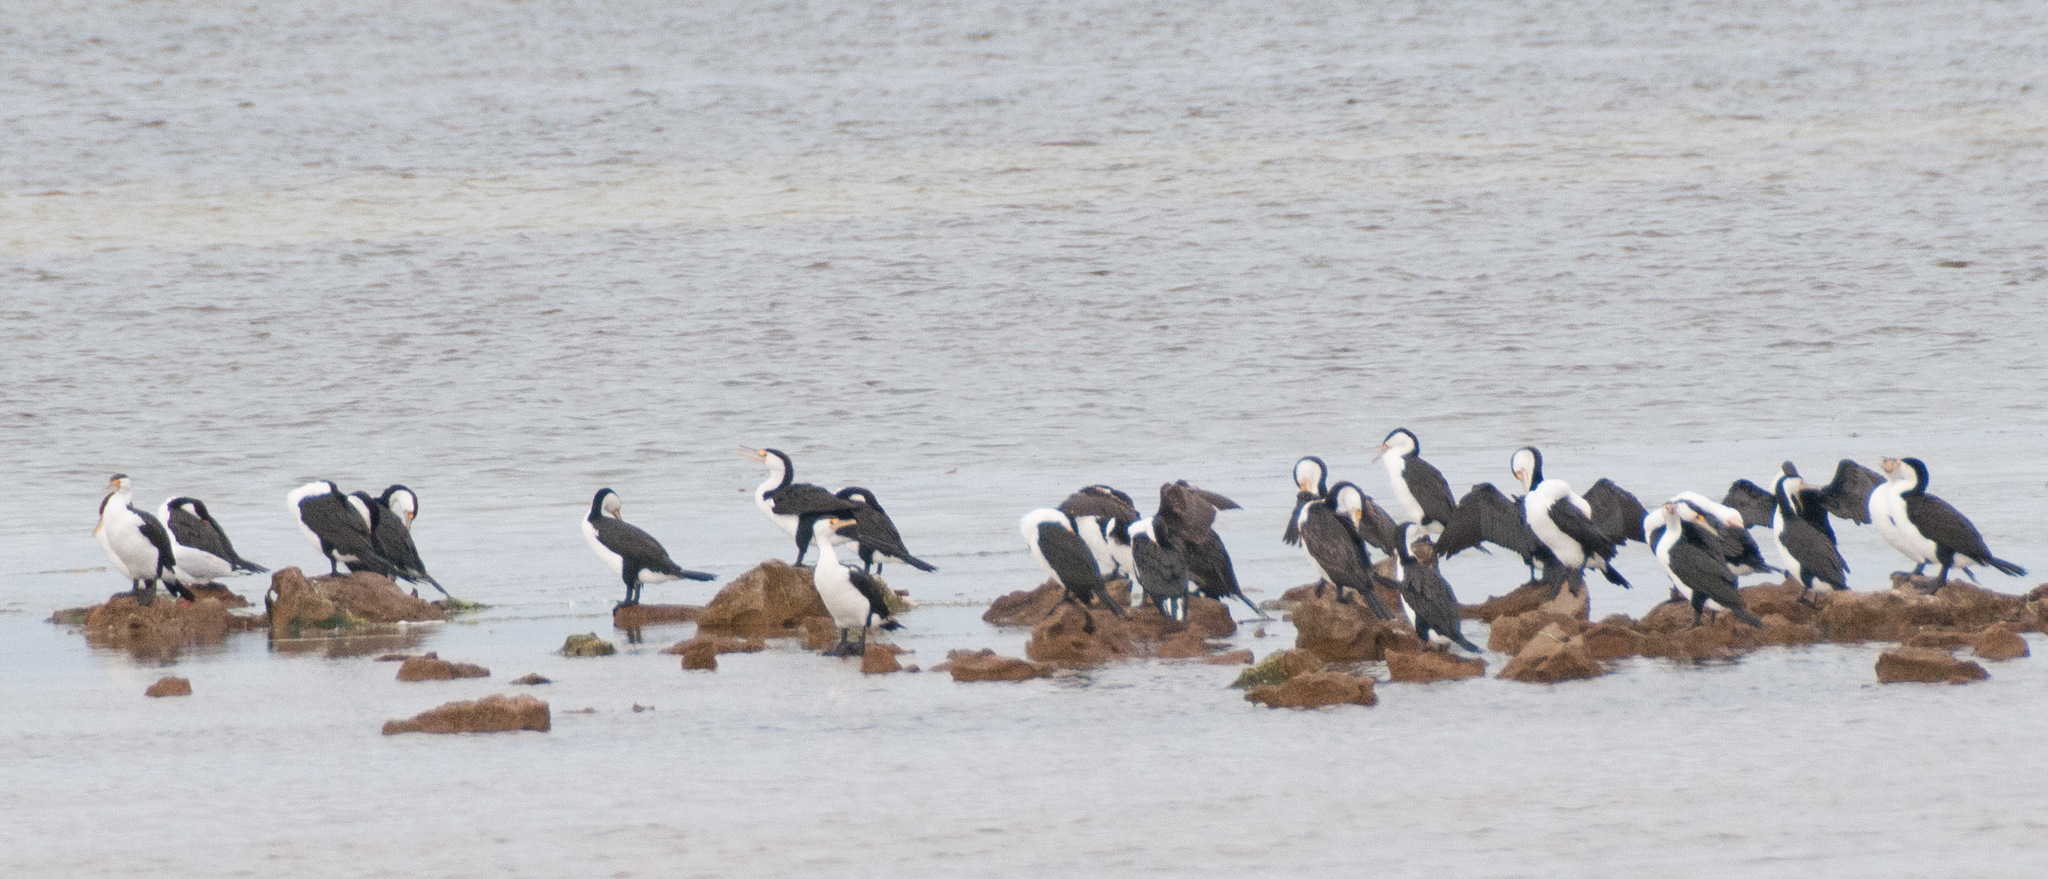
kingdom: Animalia
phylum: Chordata
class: Aves
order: Suliformes
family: Phalacrocoracidae
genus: Phalacrocorax
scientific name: Phalacrocorax varius
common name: Pied cormorant
